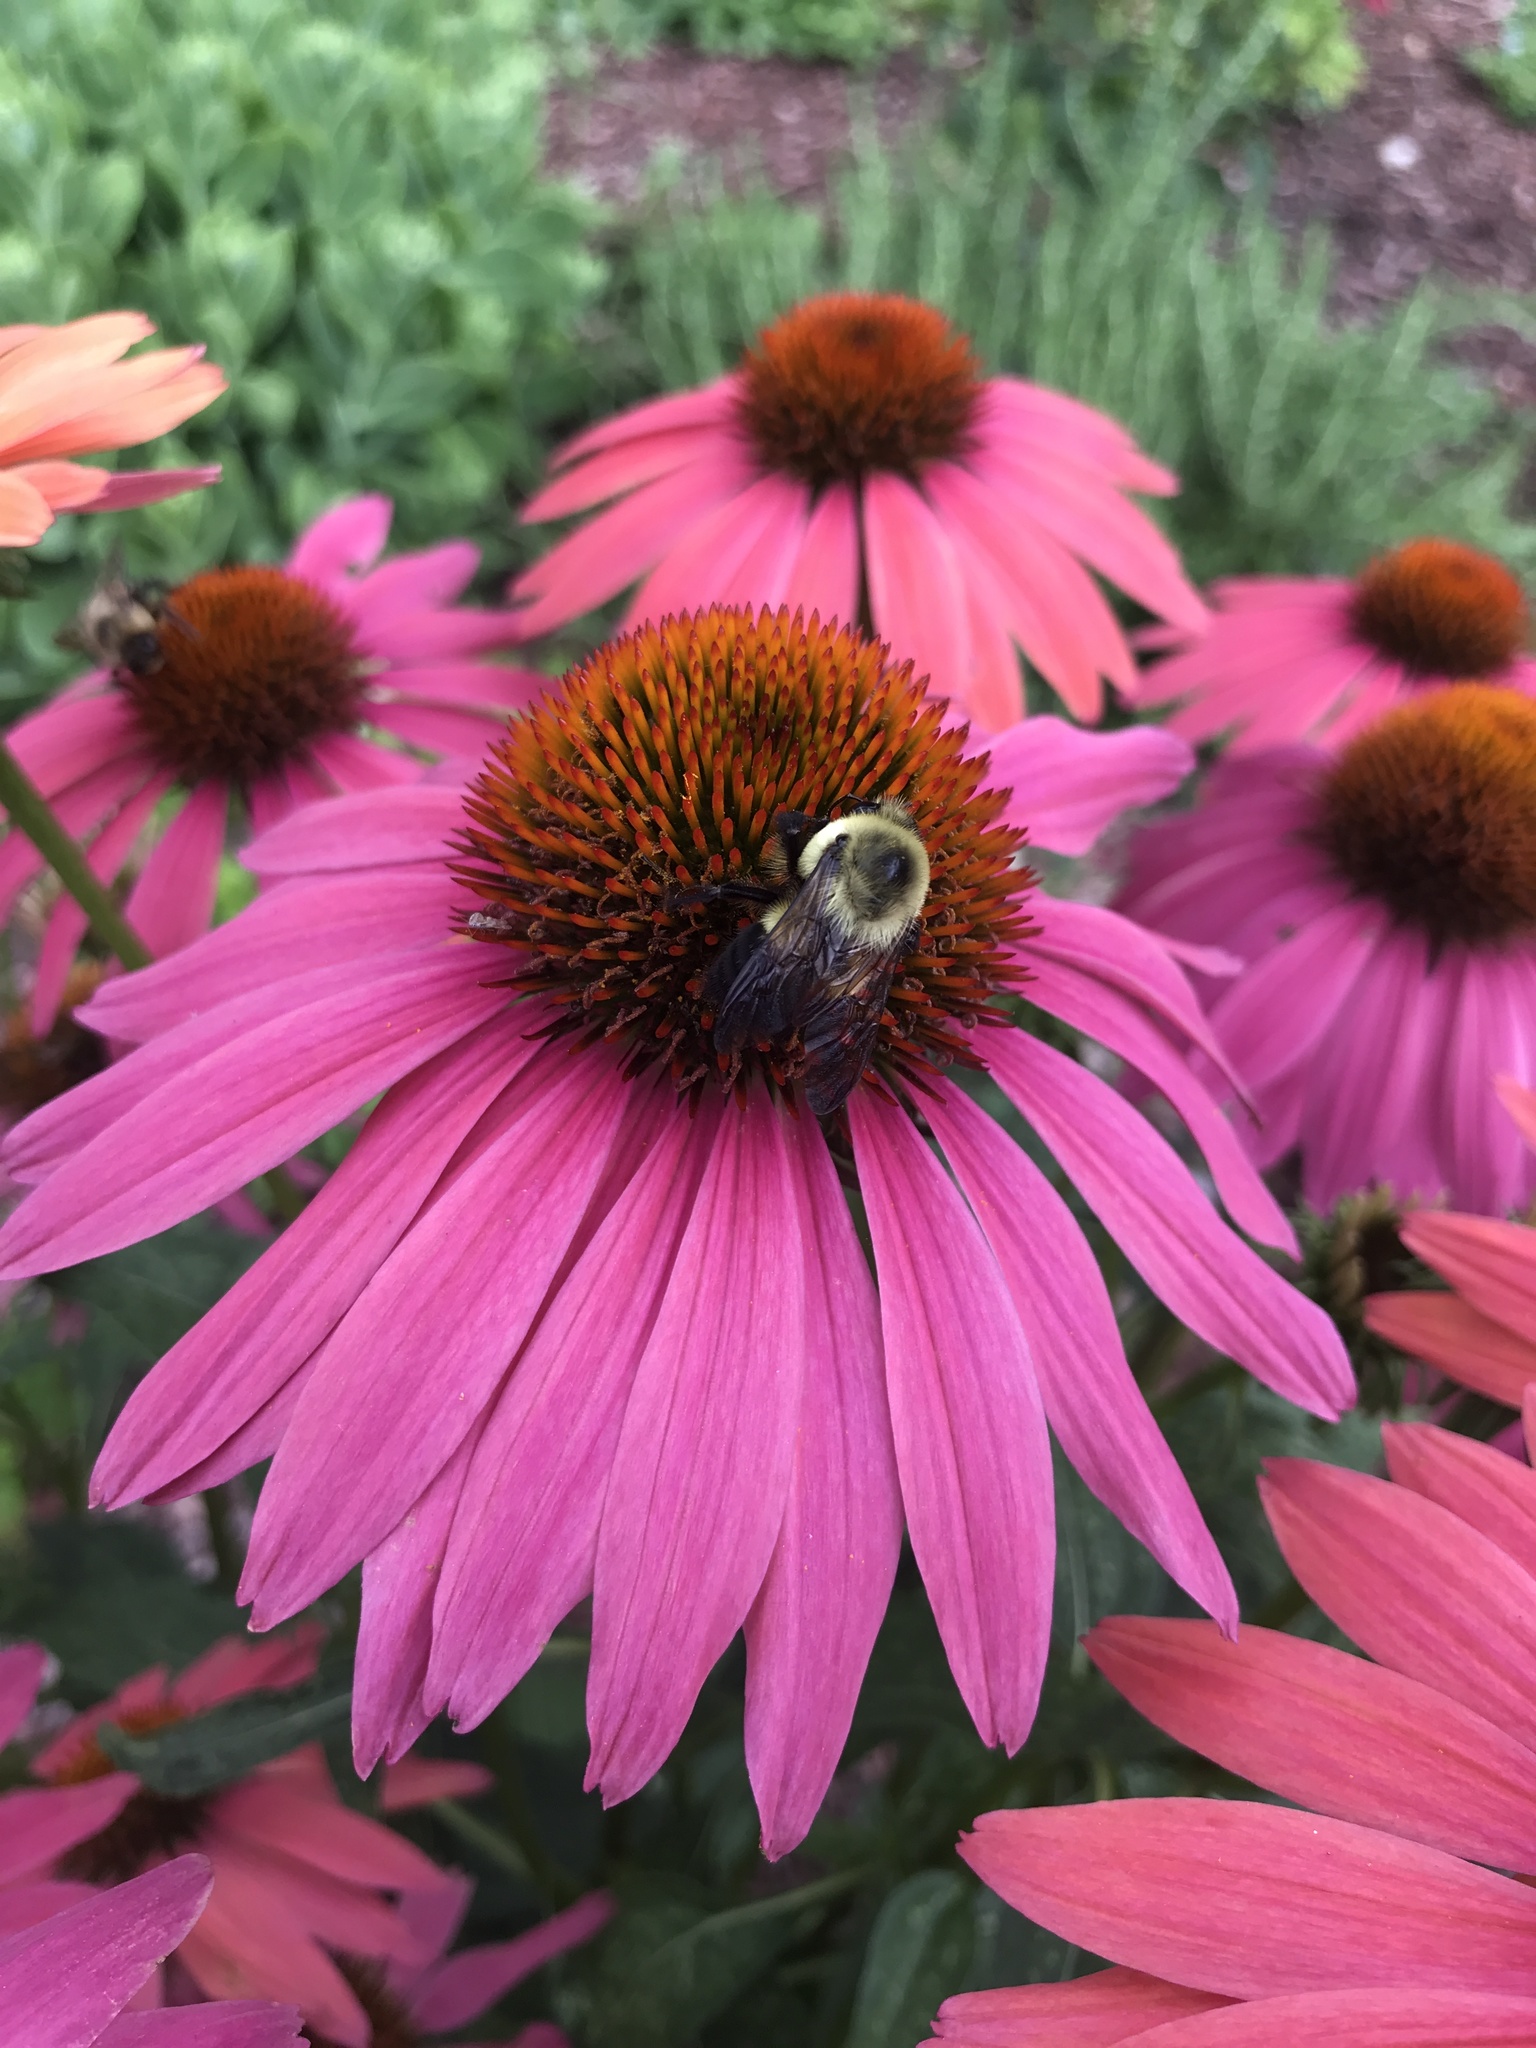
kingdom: Animalia
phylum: Arthropoda
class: Insecta
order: Hymenoptera
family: Apidae
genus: Bombus
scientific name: Bombus griseocollis
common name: Brown-belted bumble bee
